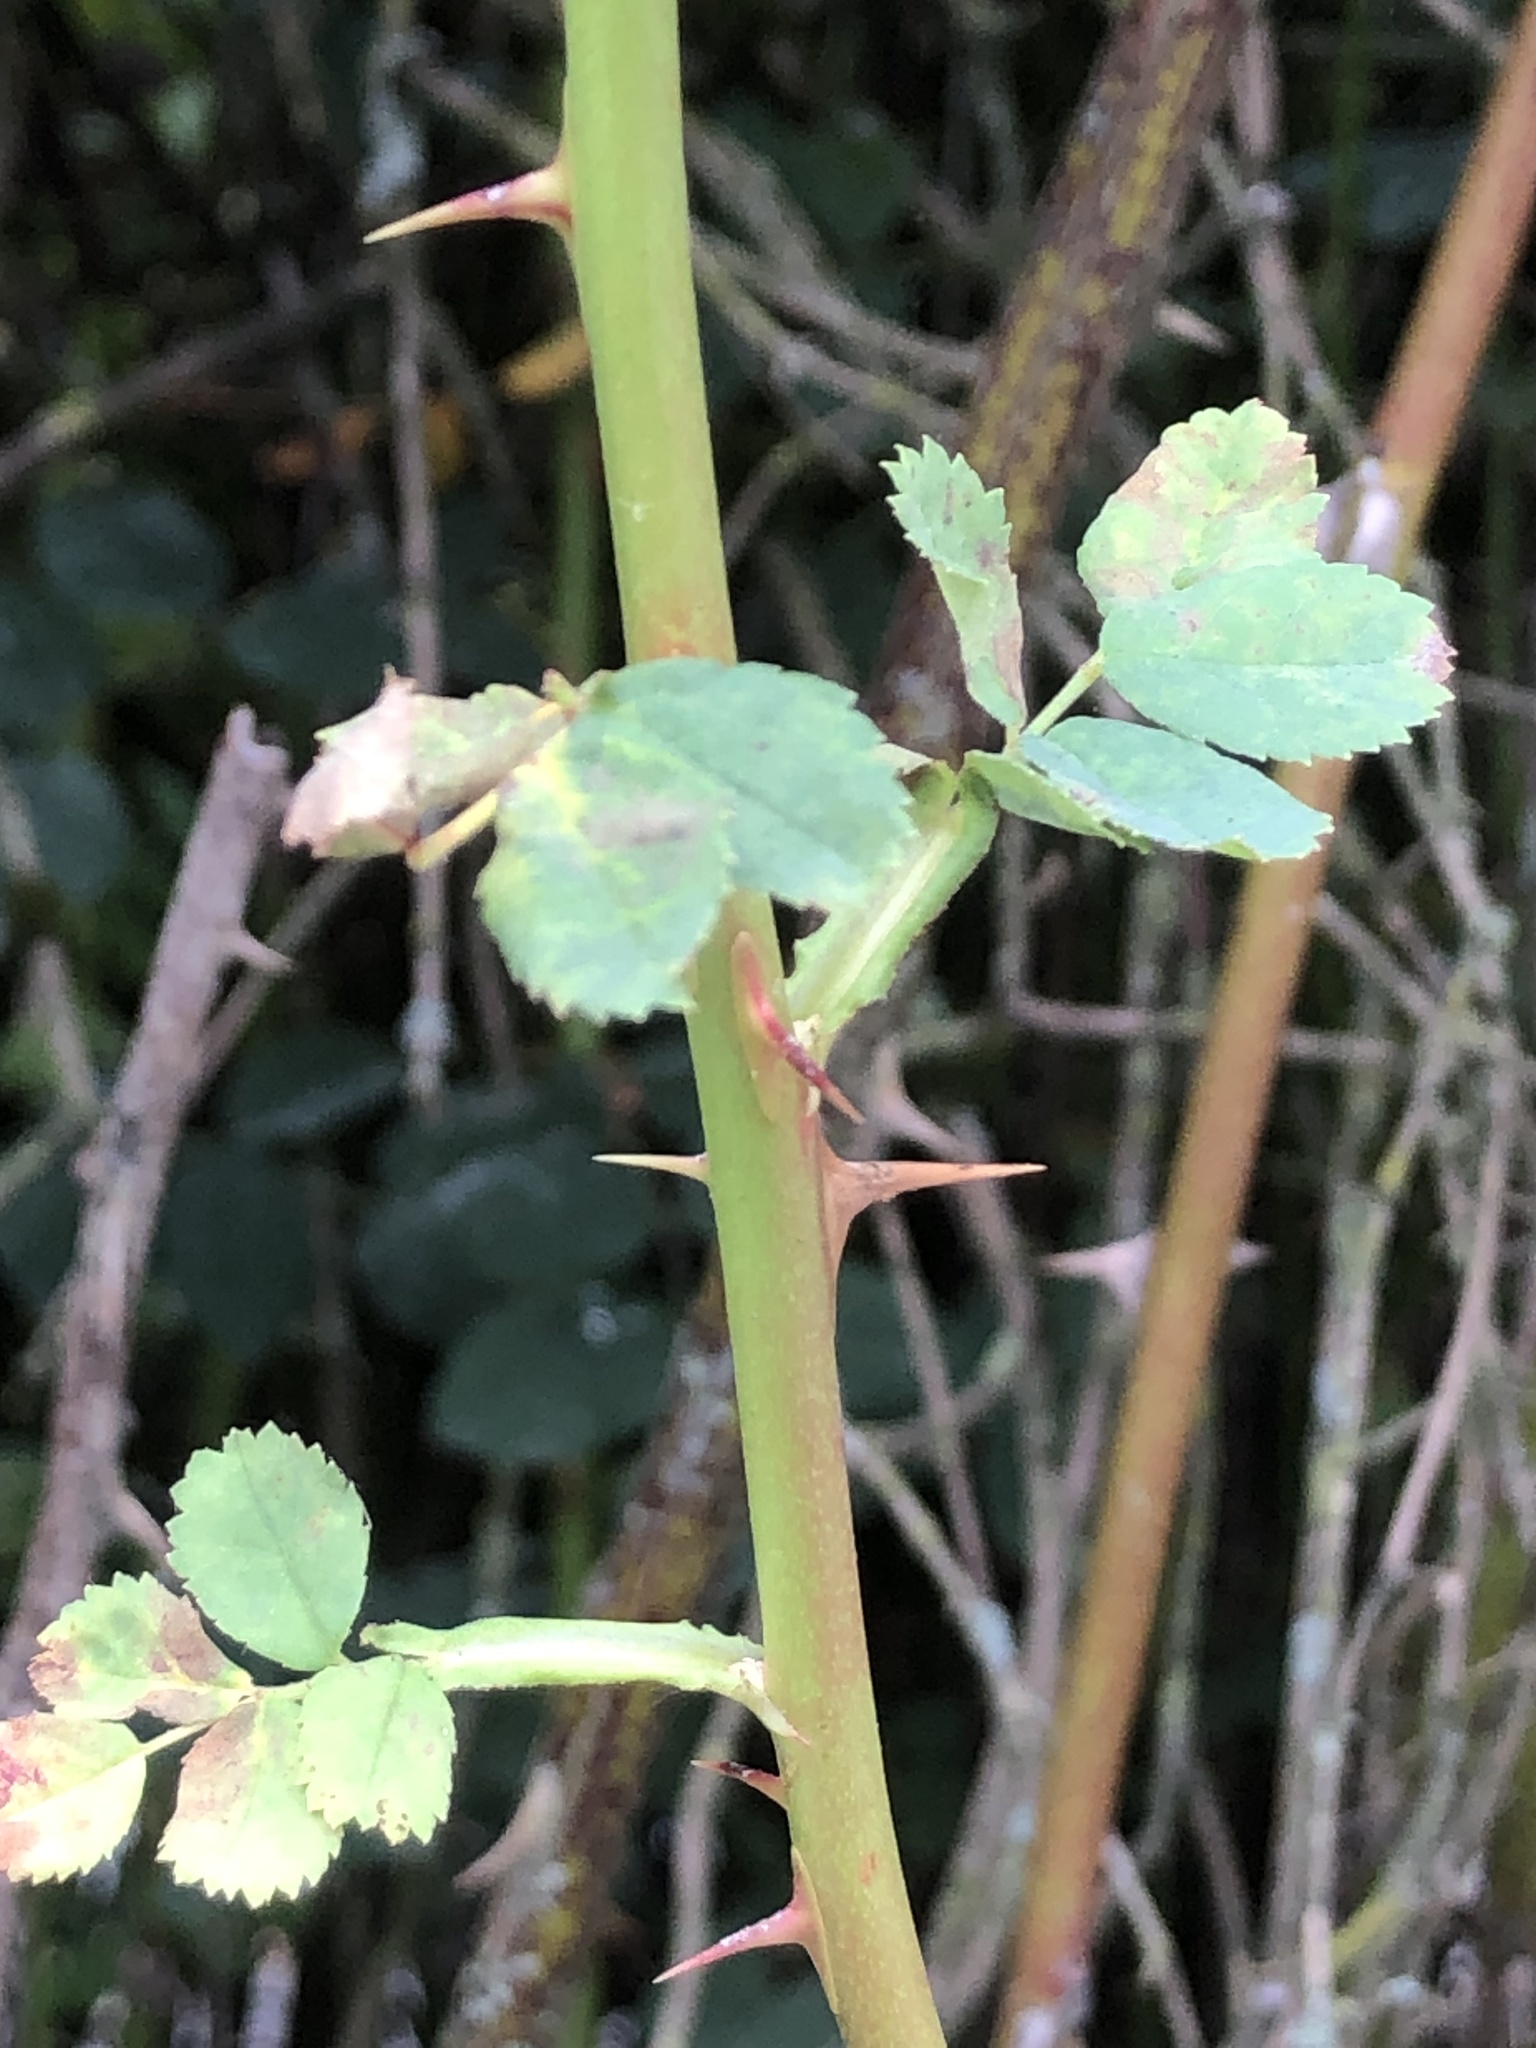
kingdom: Plantae
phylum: Tracheophyta
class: Magnoliopsida
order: Rosales
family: Rosaceae
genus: Rosa
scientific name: Rosa nutkana
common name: Nootka rose
